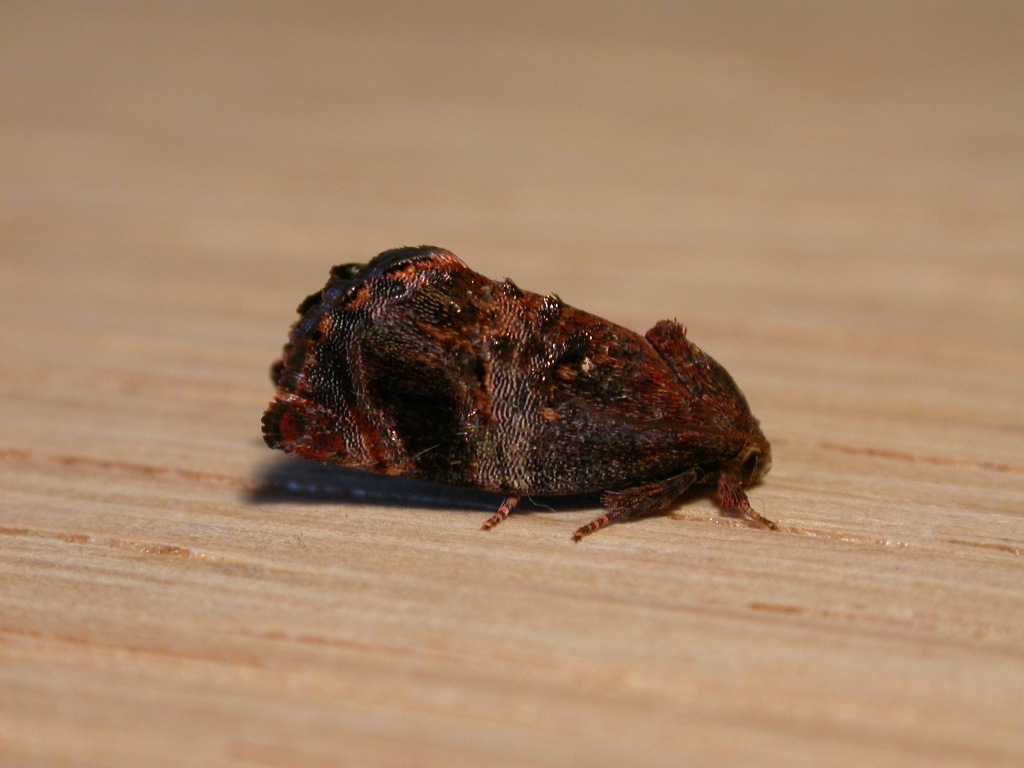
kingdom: Animalia
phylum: Arthropoda
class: Insecta
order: Lepidoptera
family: Depressariidae
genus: Peritropha
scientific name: Peritropha oligodrachma
